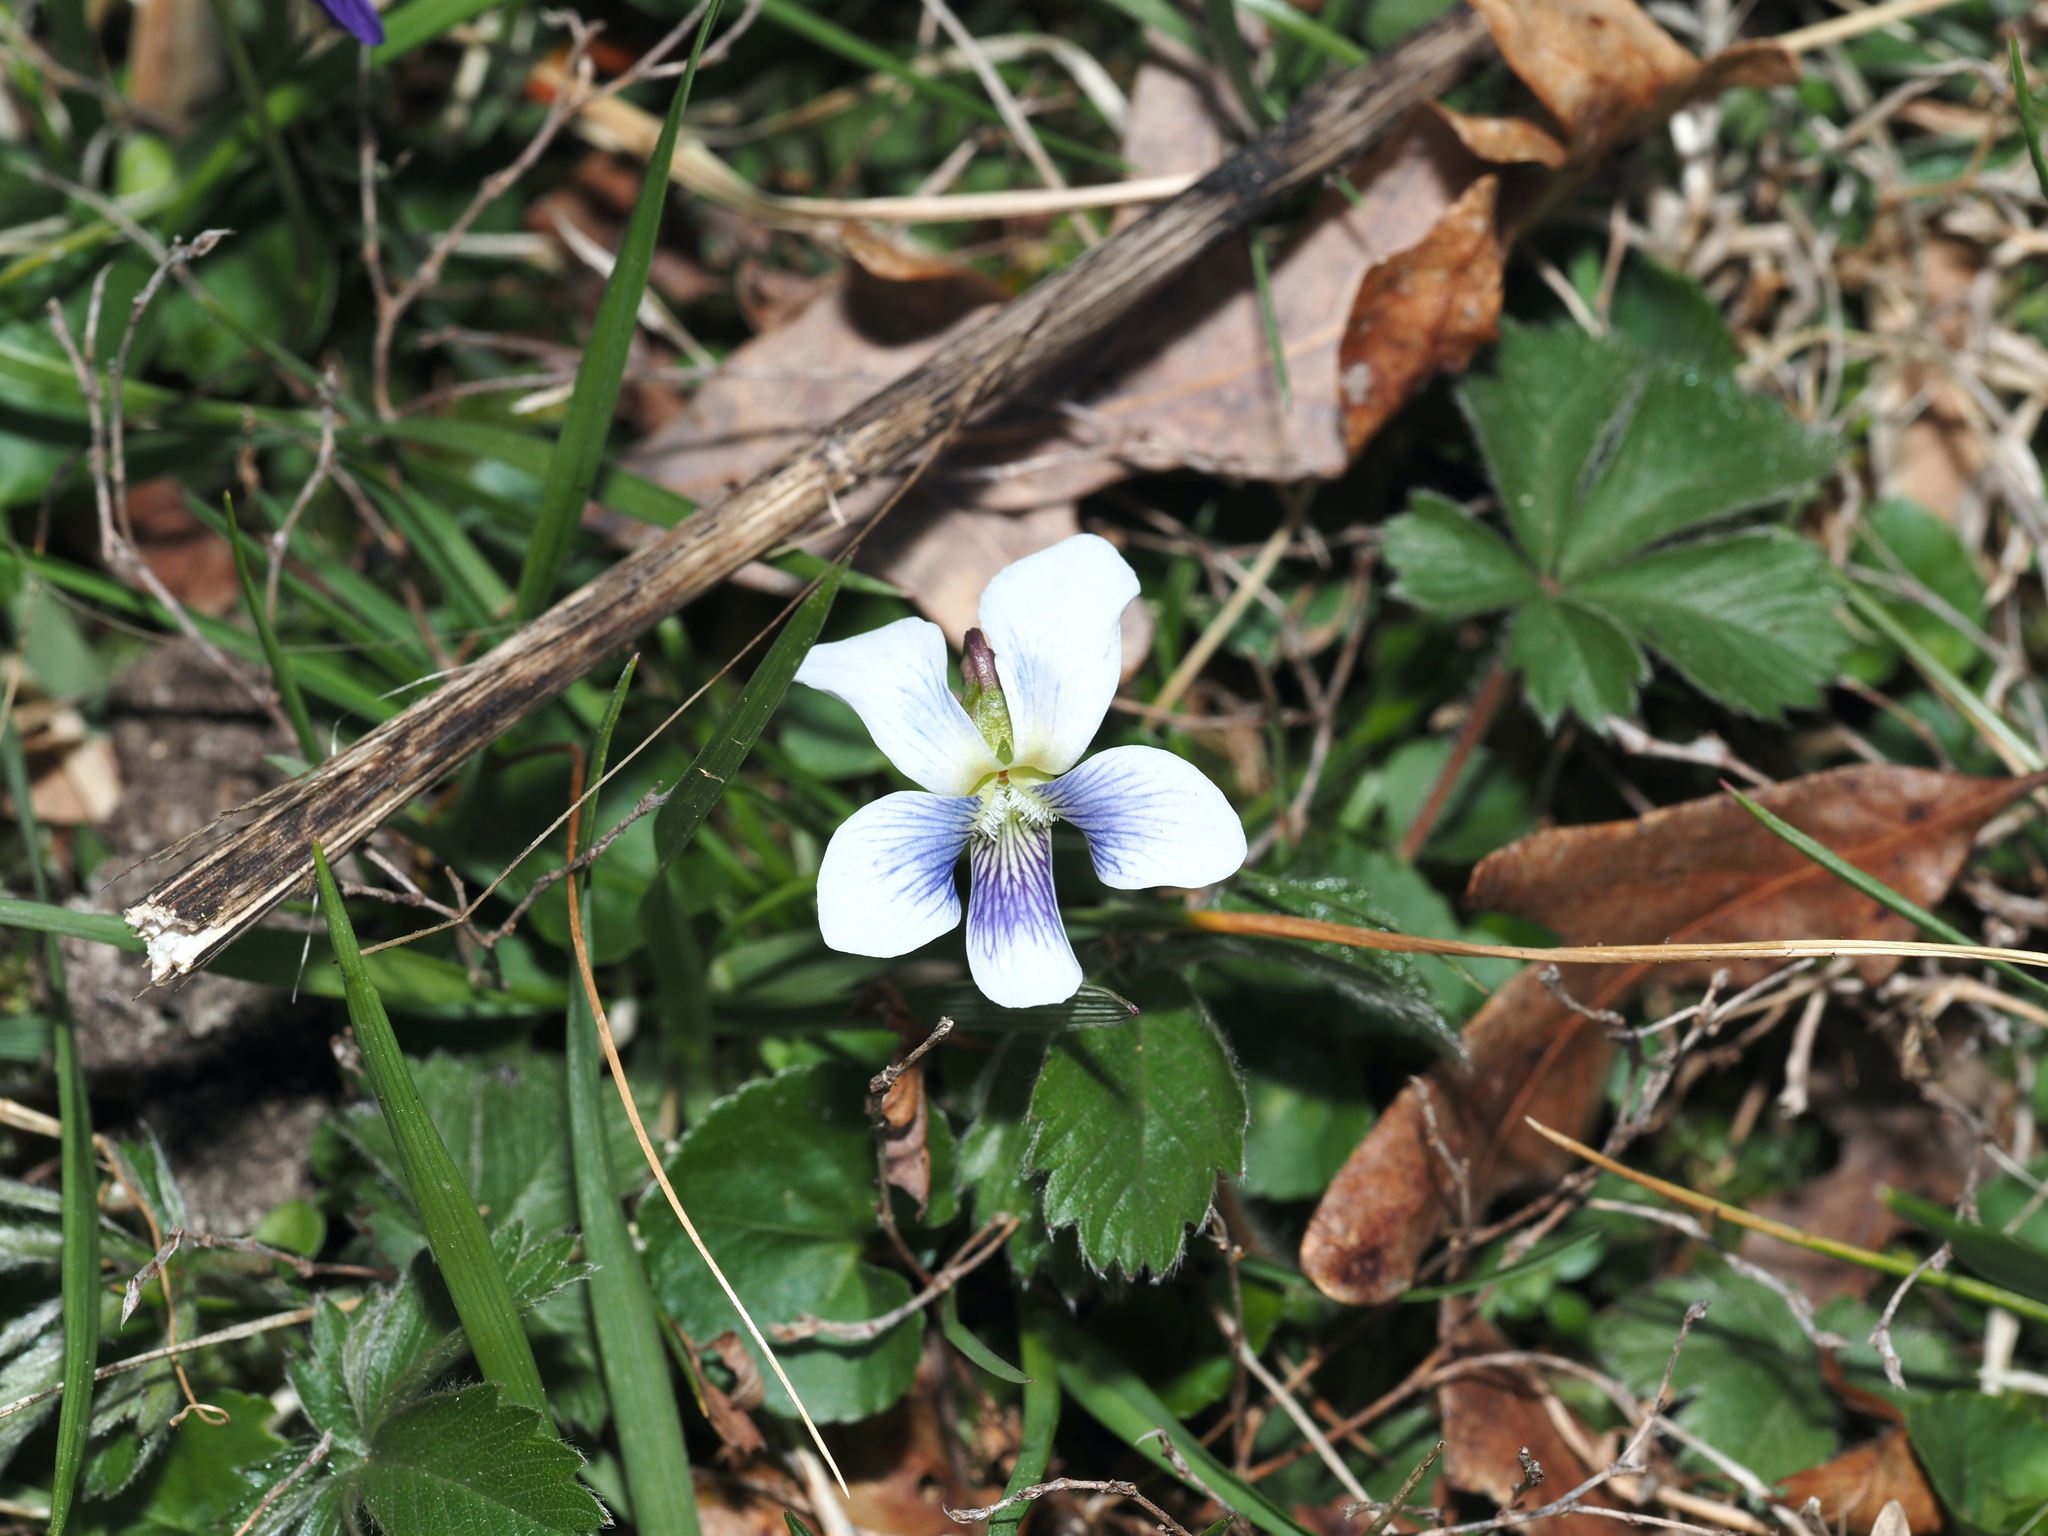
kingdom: Plantae
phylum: Tracheophyta
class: Magnoliopsida
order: Malpighiales
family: Violaceae
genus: Viola
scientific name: Viola sororia
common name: Dooryard violet
